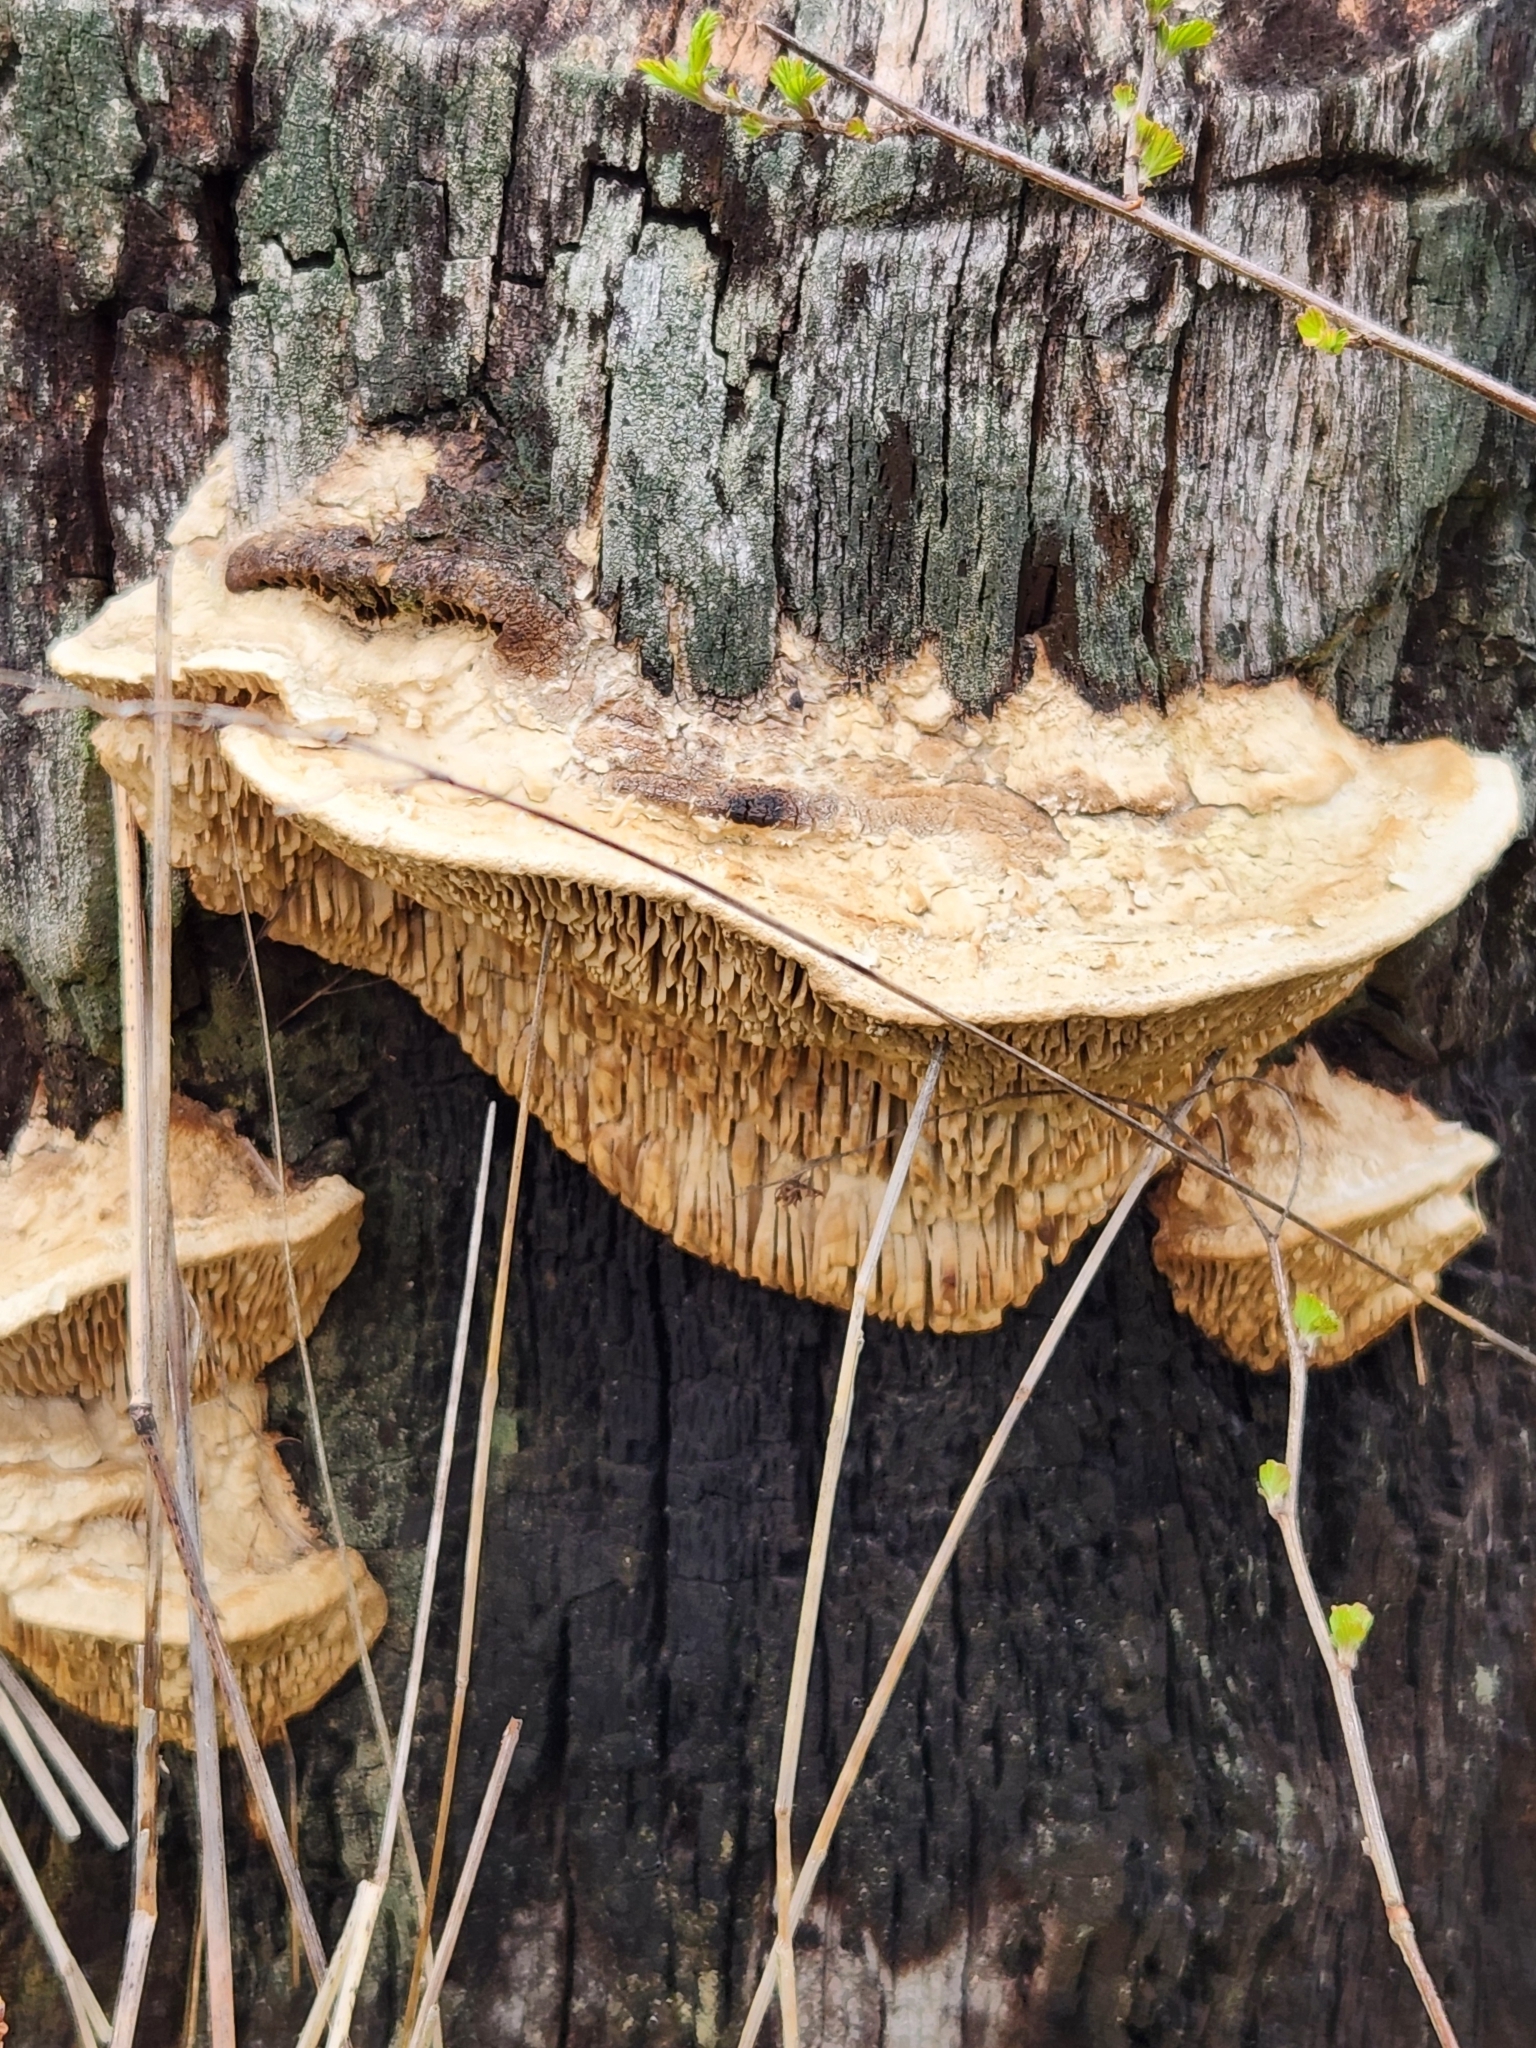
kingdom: Fungi
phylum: Basidiomycota
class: Agaricomycetes
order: Polyporales
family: Fomitopsidaceae
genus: Fomitopsis
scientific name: Fomitopsis
